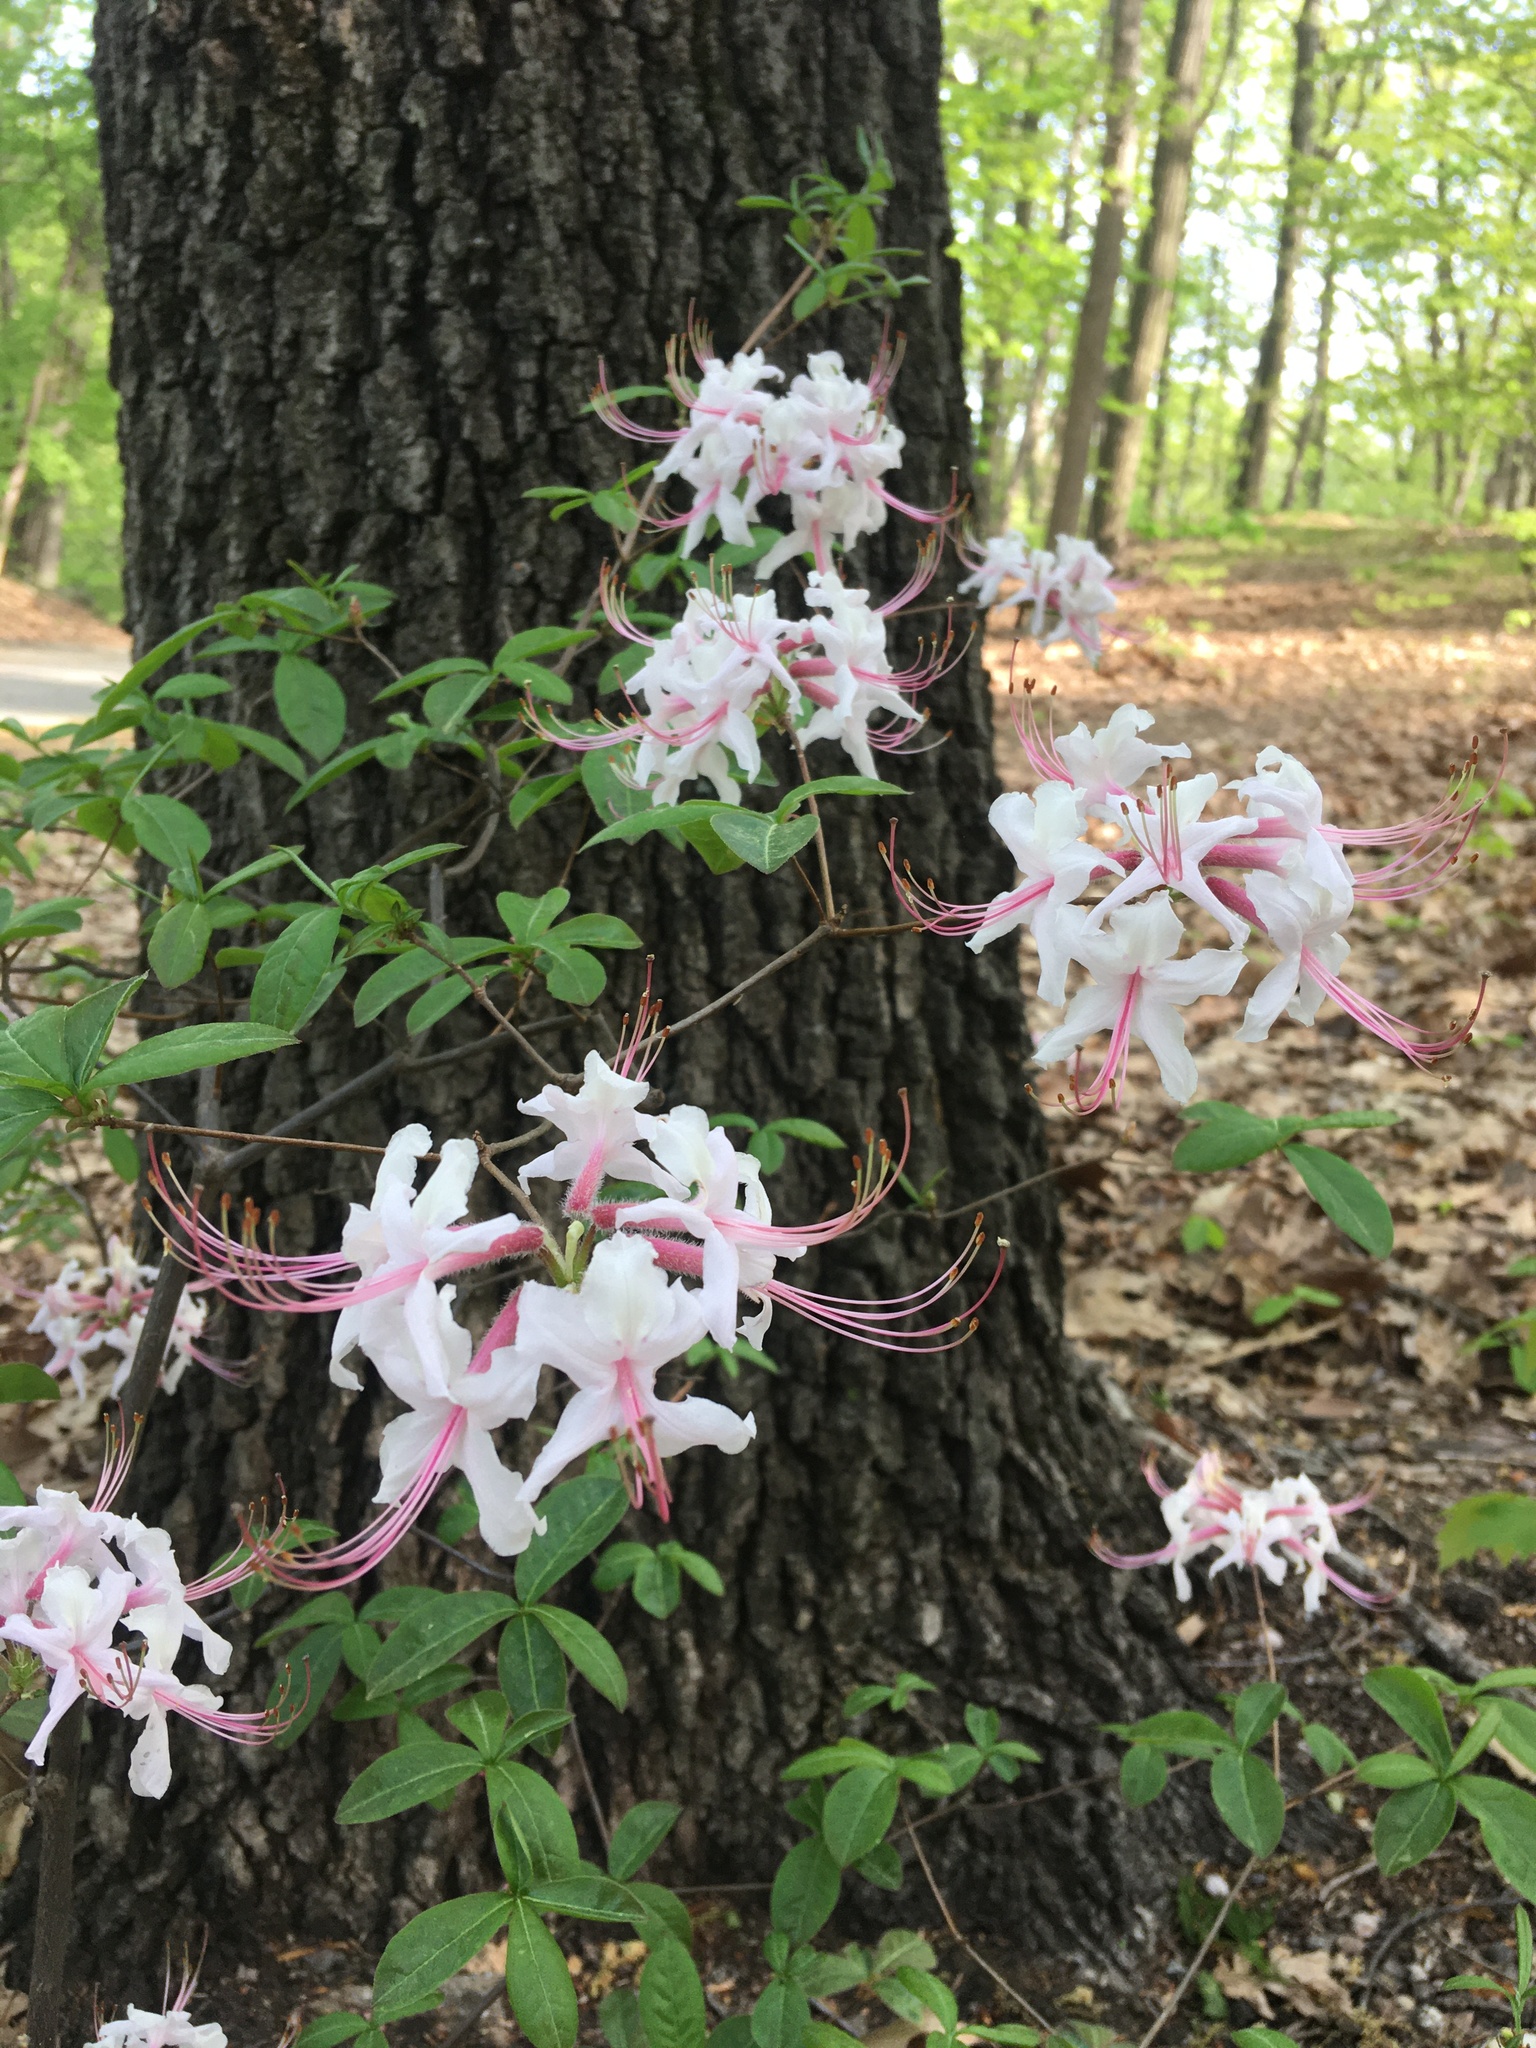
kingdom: Plantae
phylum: Tracheophyta
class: Magnoliopsida
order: Ericales
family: Ericaceae
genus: Rhododendron
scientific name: Rhododendron periclymenoides
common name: Election-pink
